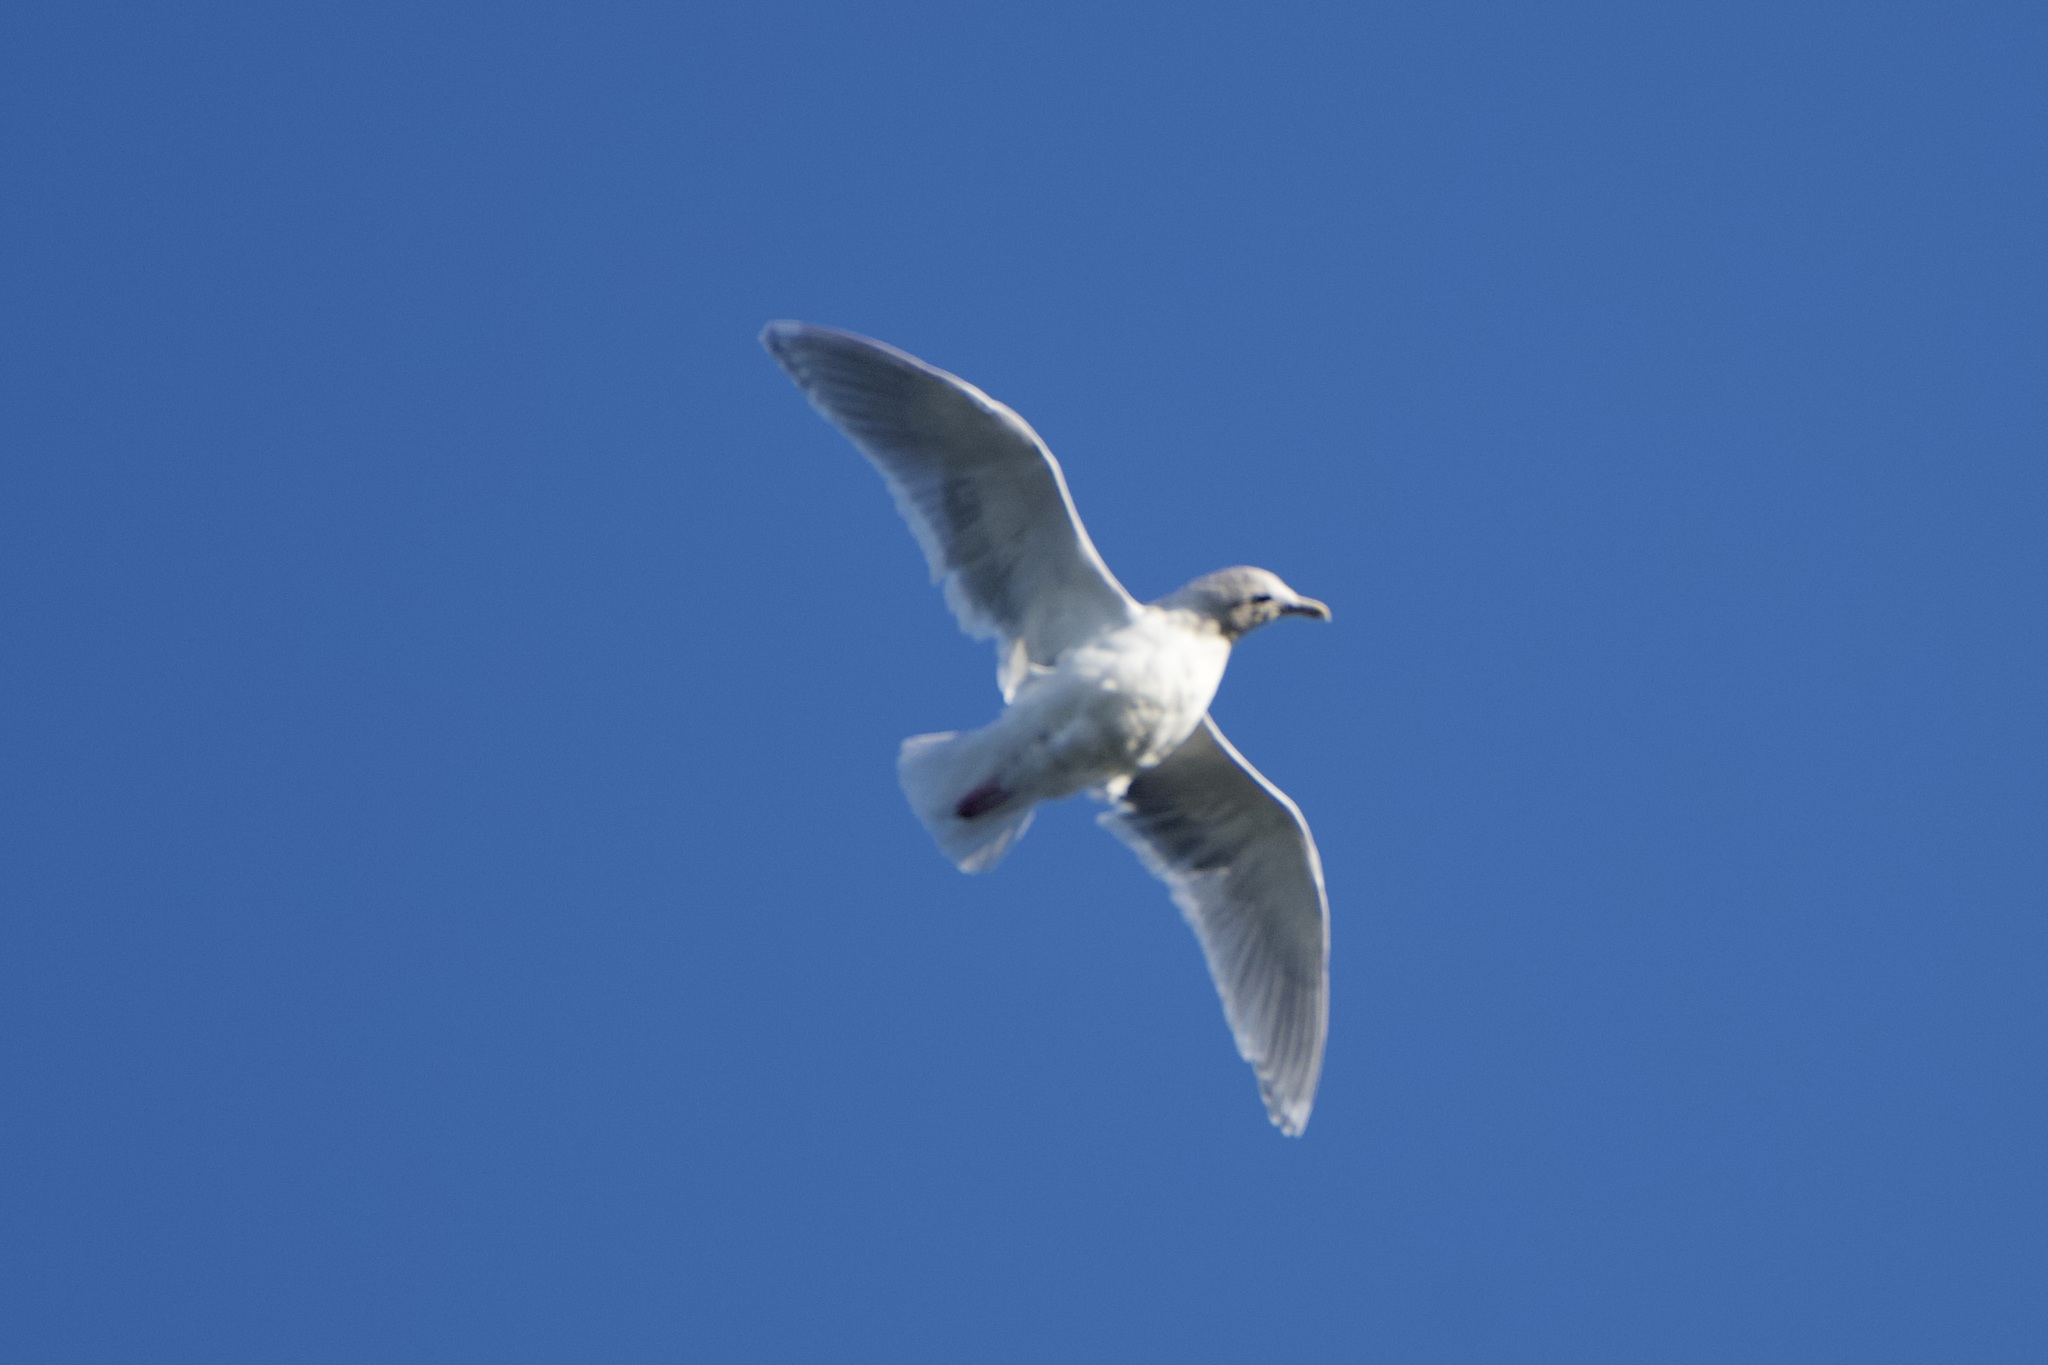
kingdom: Animalia
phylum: Chordata
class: Aves
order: Charadriiformes
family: Laridae
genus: Larus
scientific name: Larus glaucescens
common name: Glaucous-winged gull
